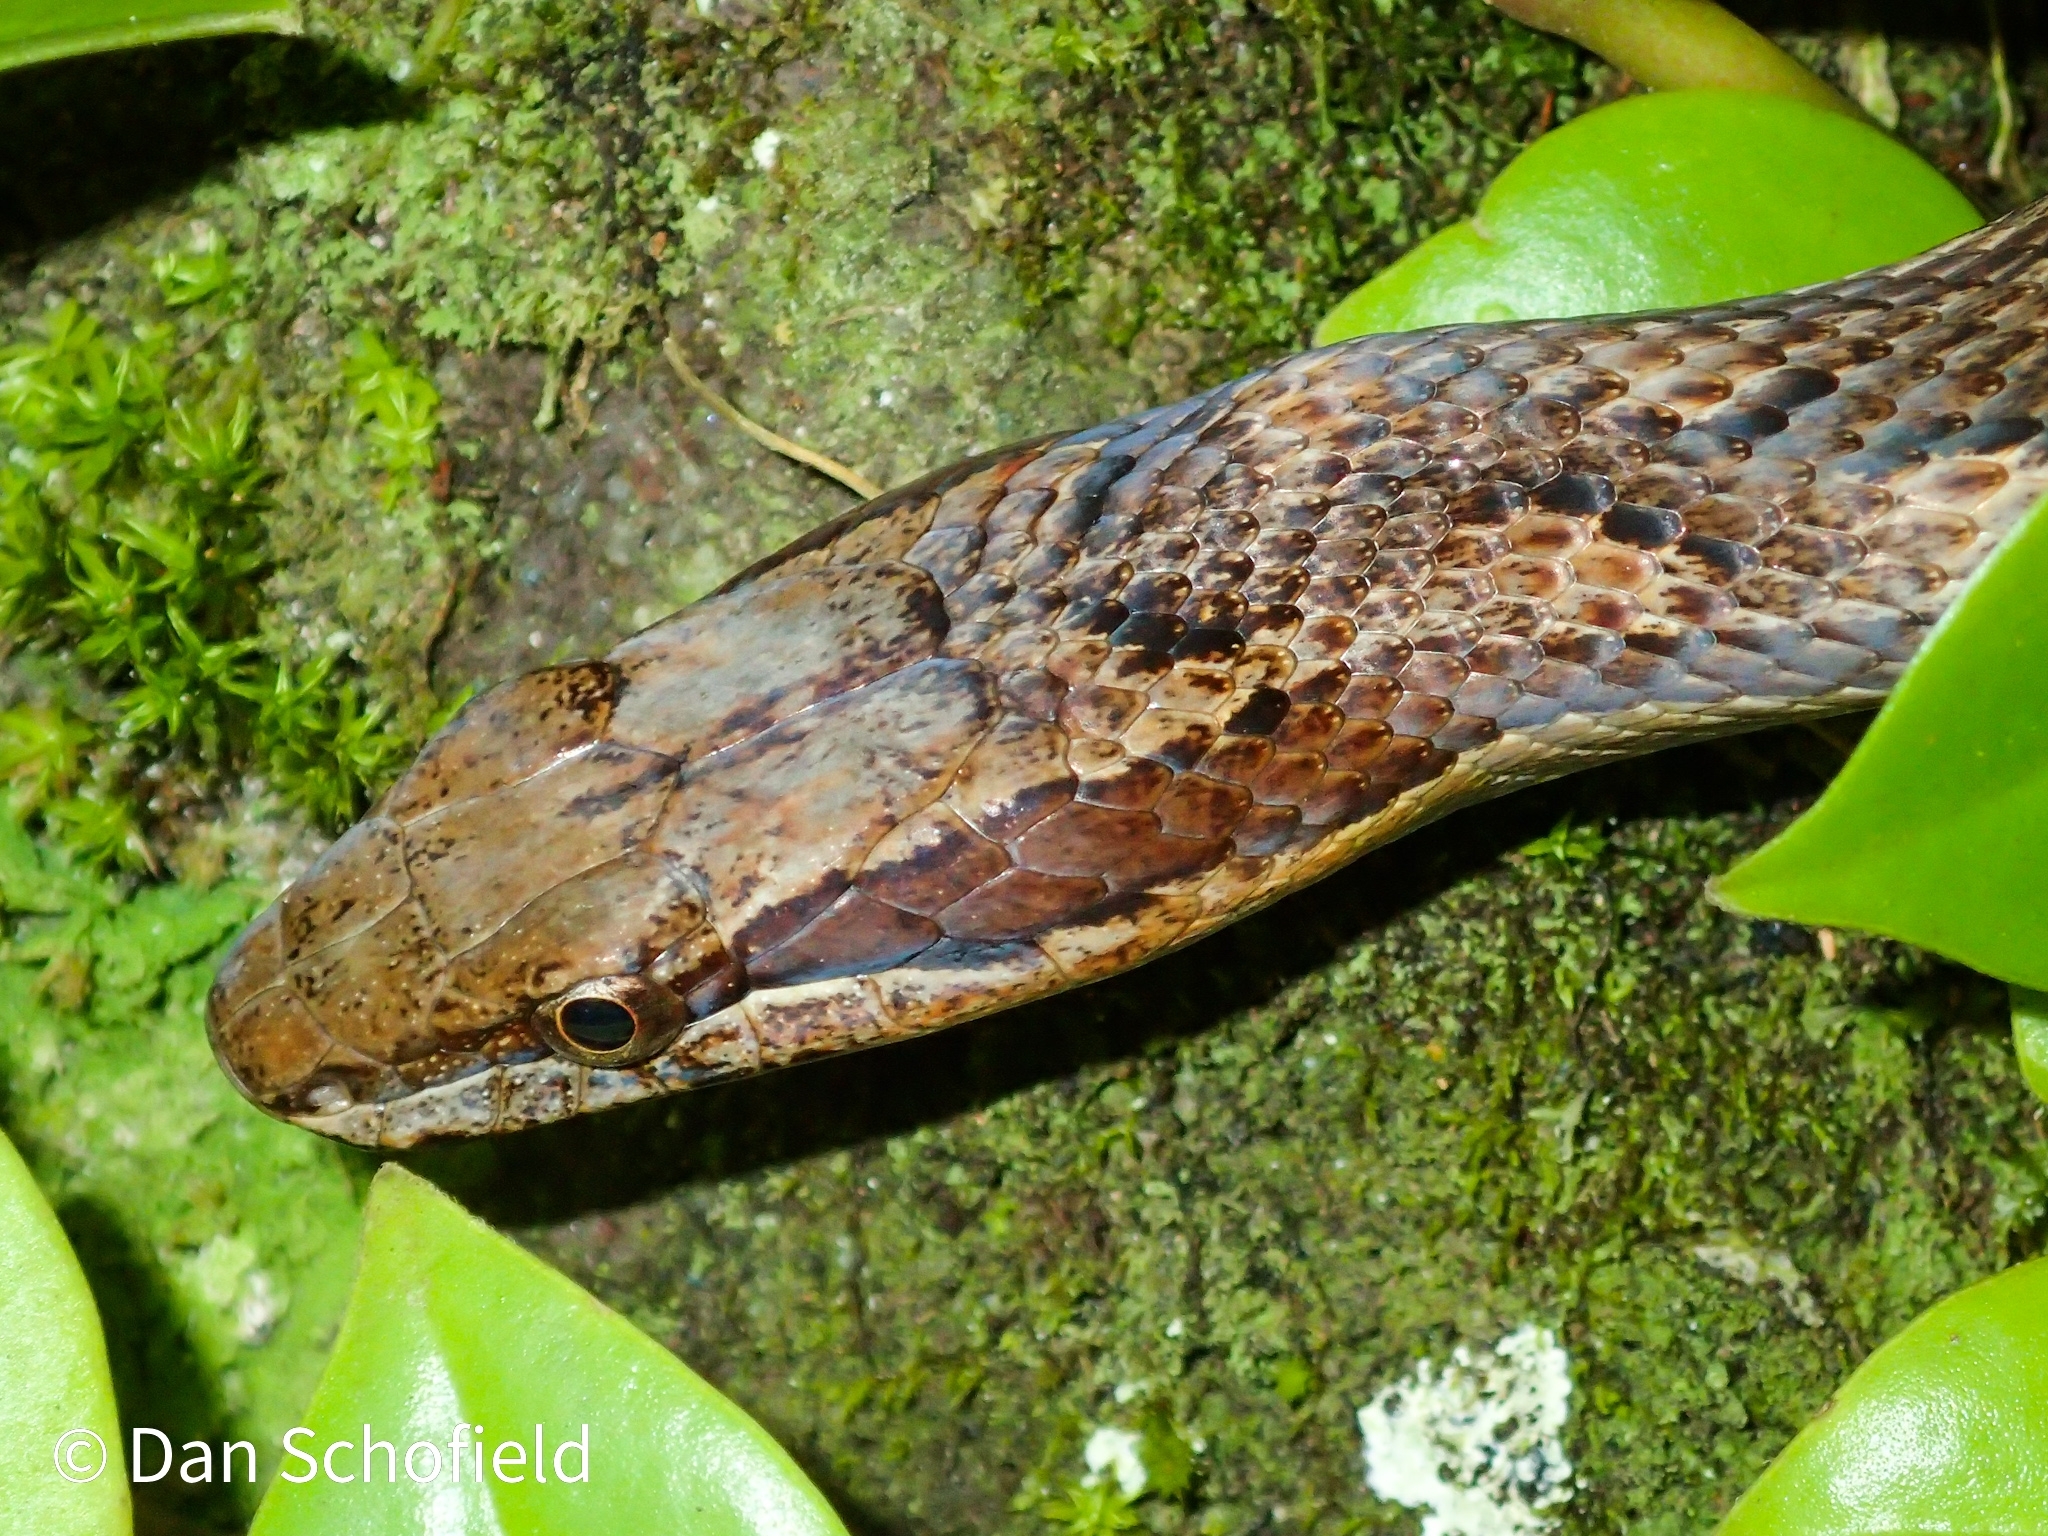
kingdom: Animalia
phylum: Chordata
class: Squamata
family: Colubridae
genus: Alsophis
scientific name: Alsophis rufiventris
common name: Orange-bellied racer
